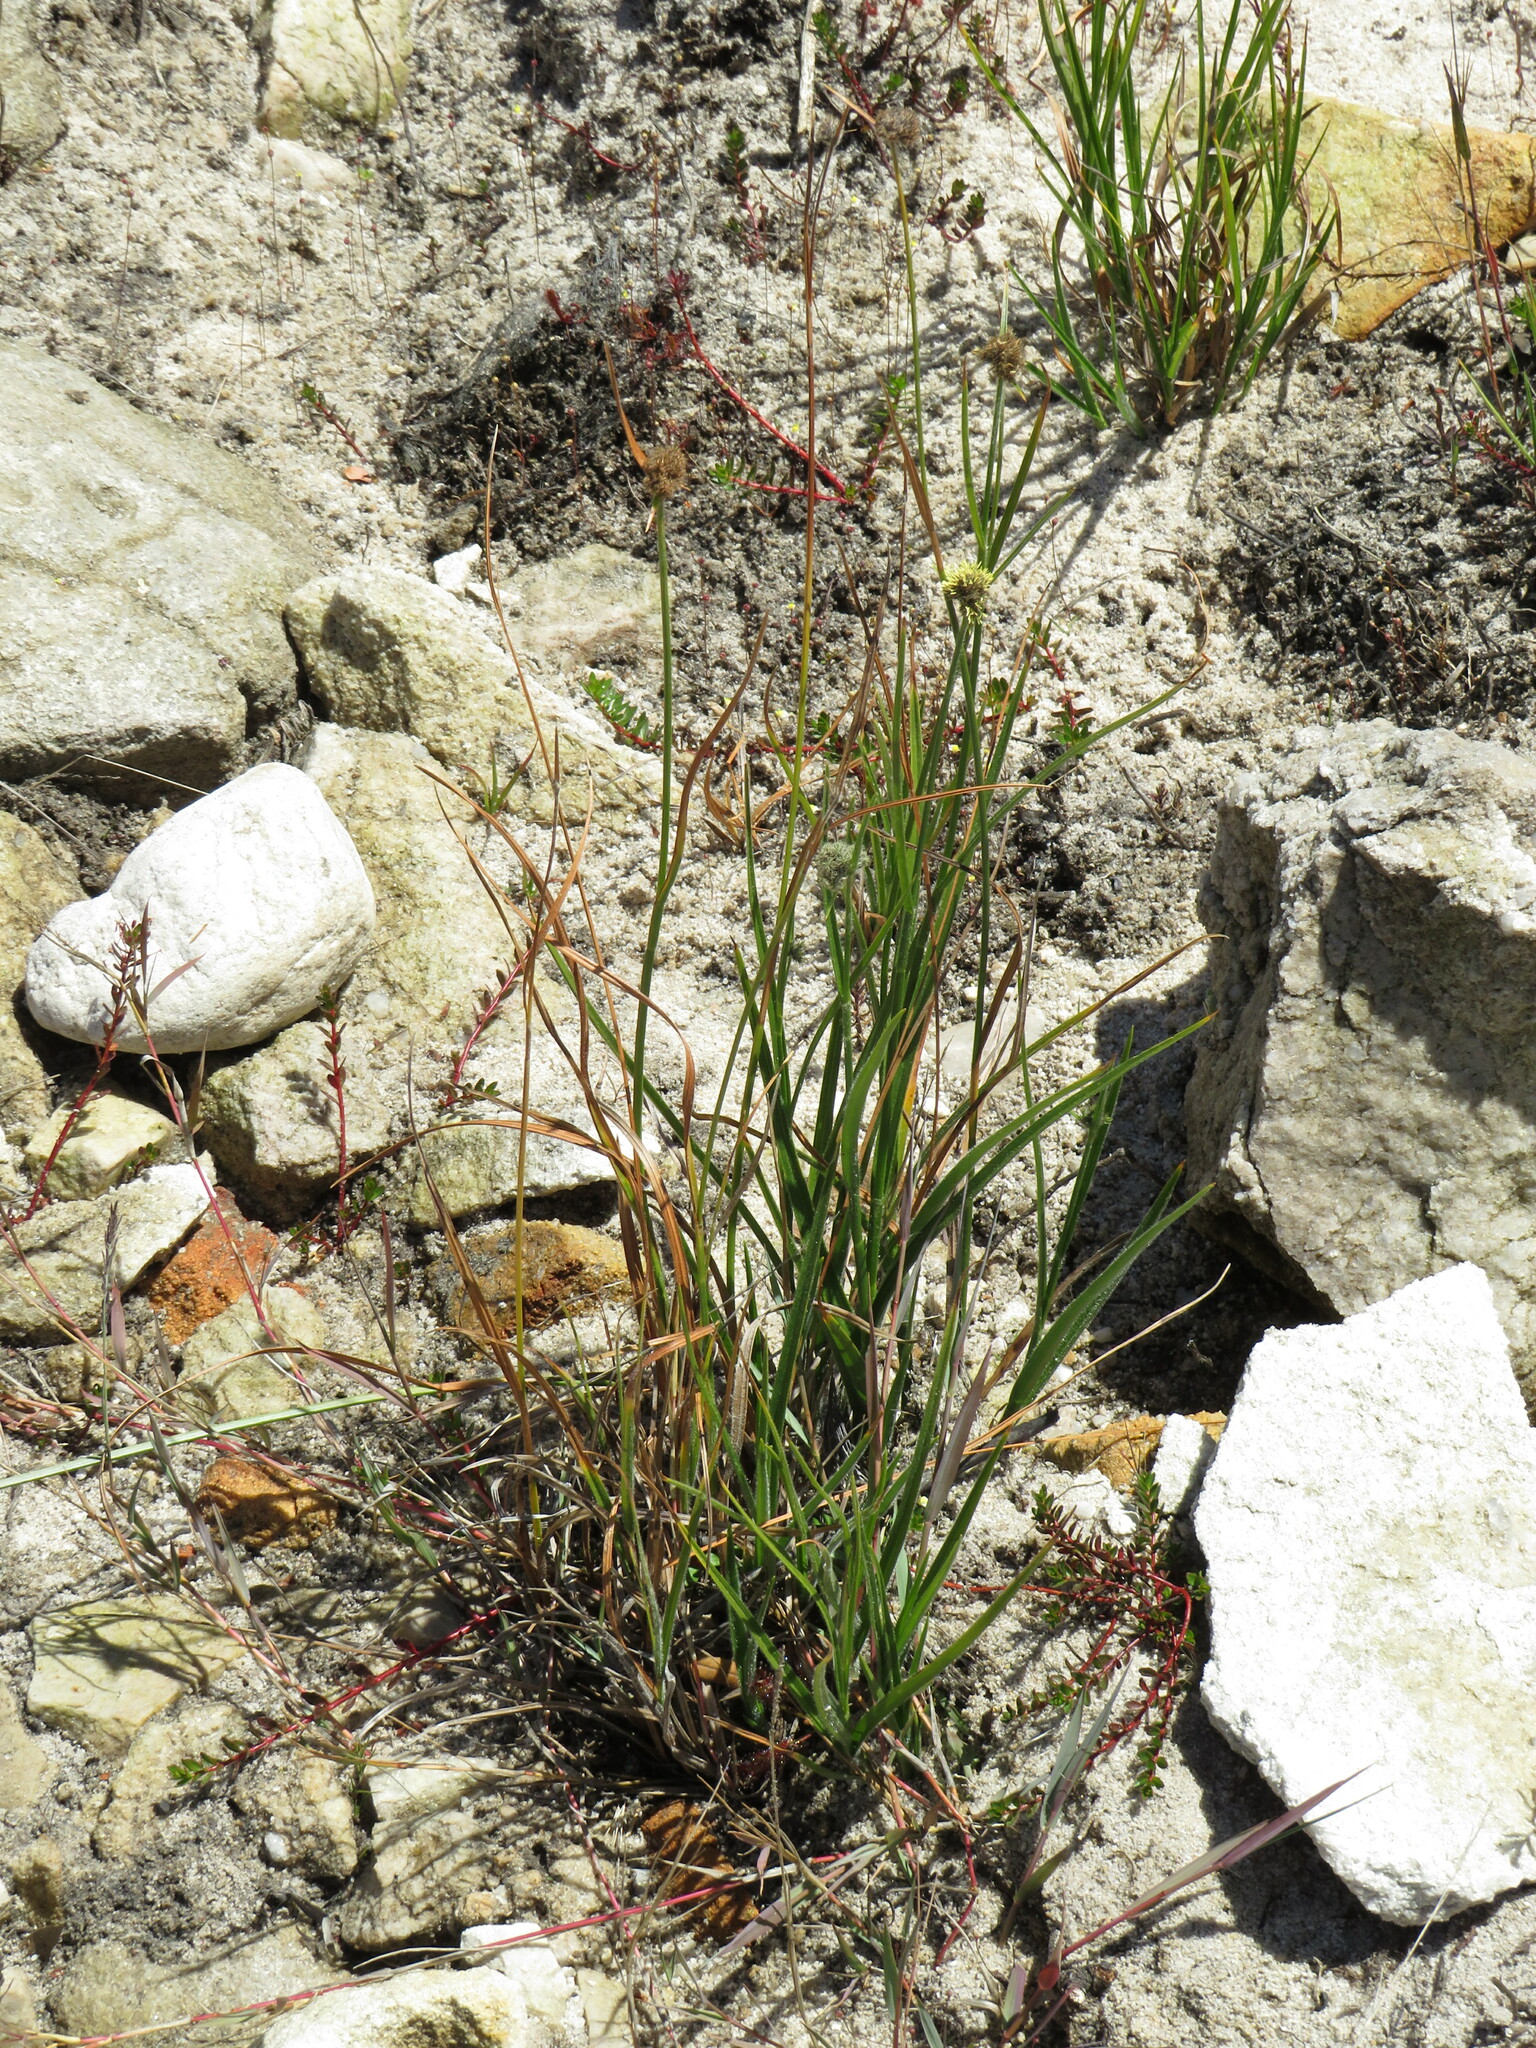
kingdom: Plantae
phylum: Tracheophyta
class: Liliopsida
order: Poales
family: Cyperaceae
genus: Fuirena
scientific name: Fuirena hirsuta
